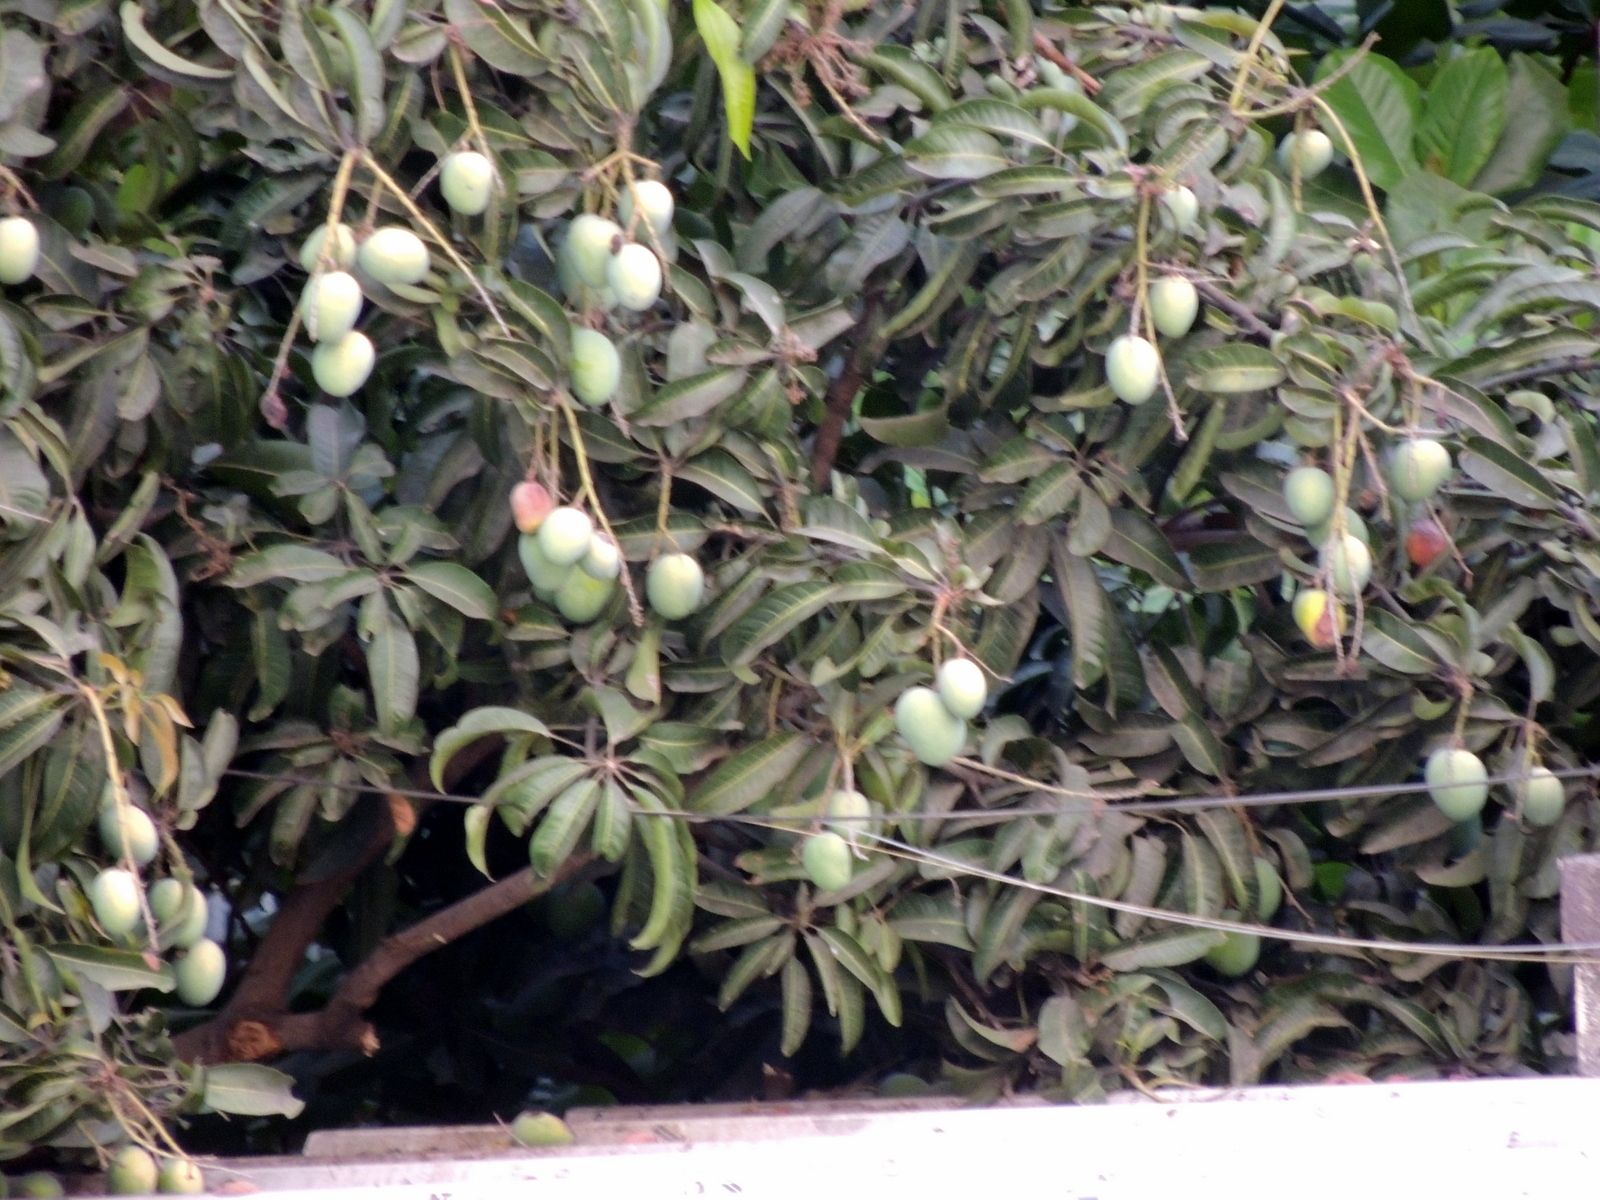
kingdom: Plantae
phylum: Tracheophyta
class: Magnoliopsida
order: Sapindales
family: Anacardiaceae
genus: Mangifera
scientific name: Mangifera indica
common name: Mango
